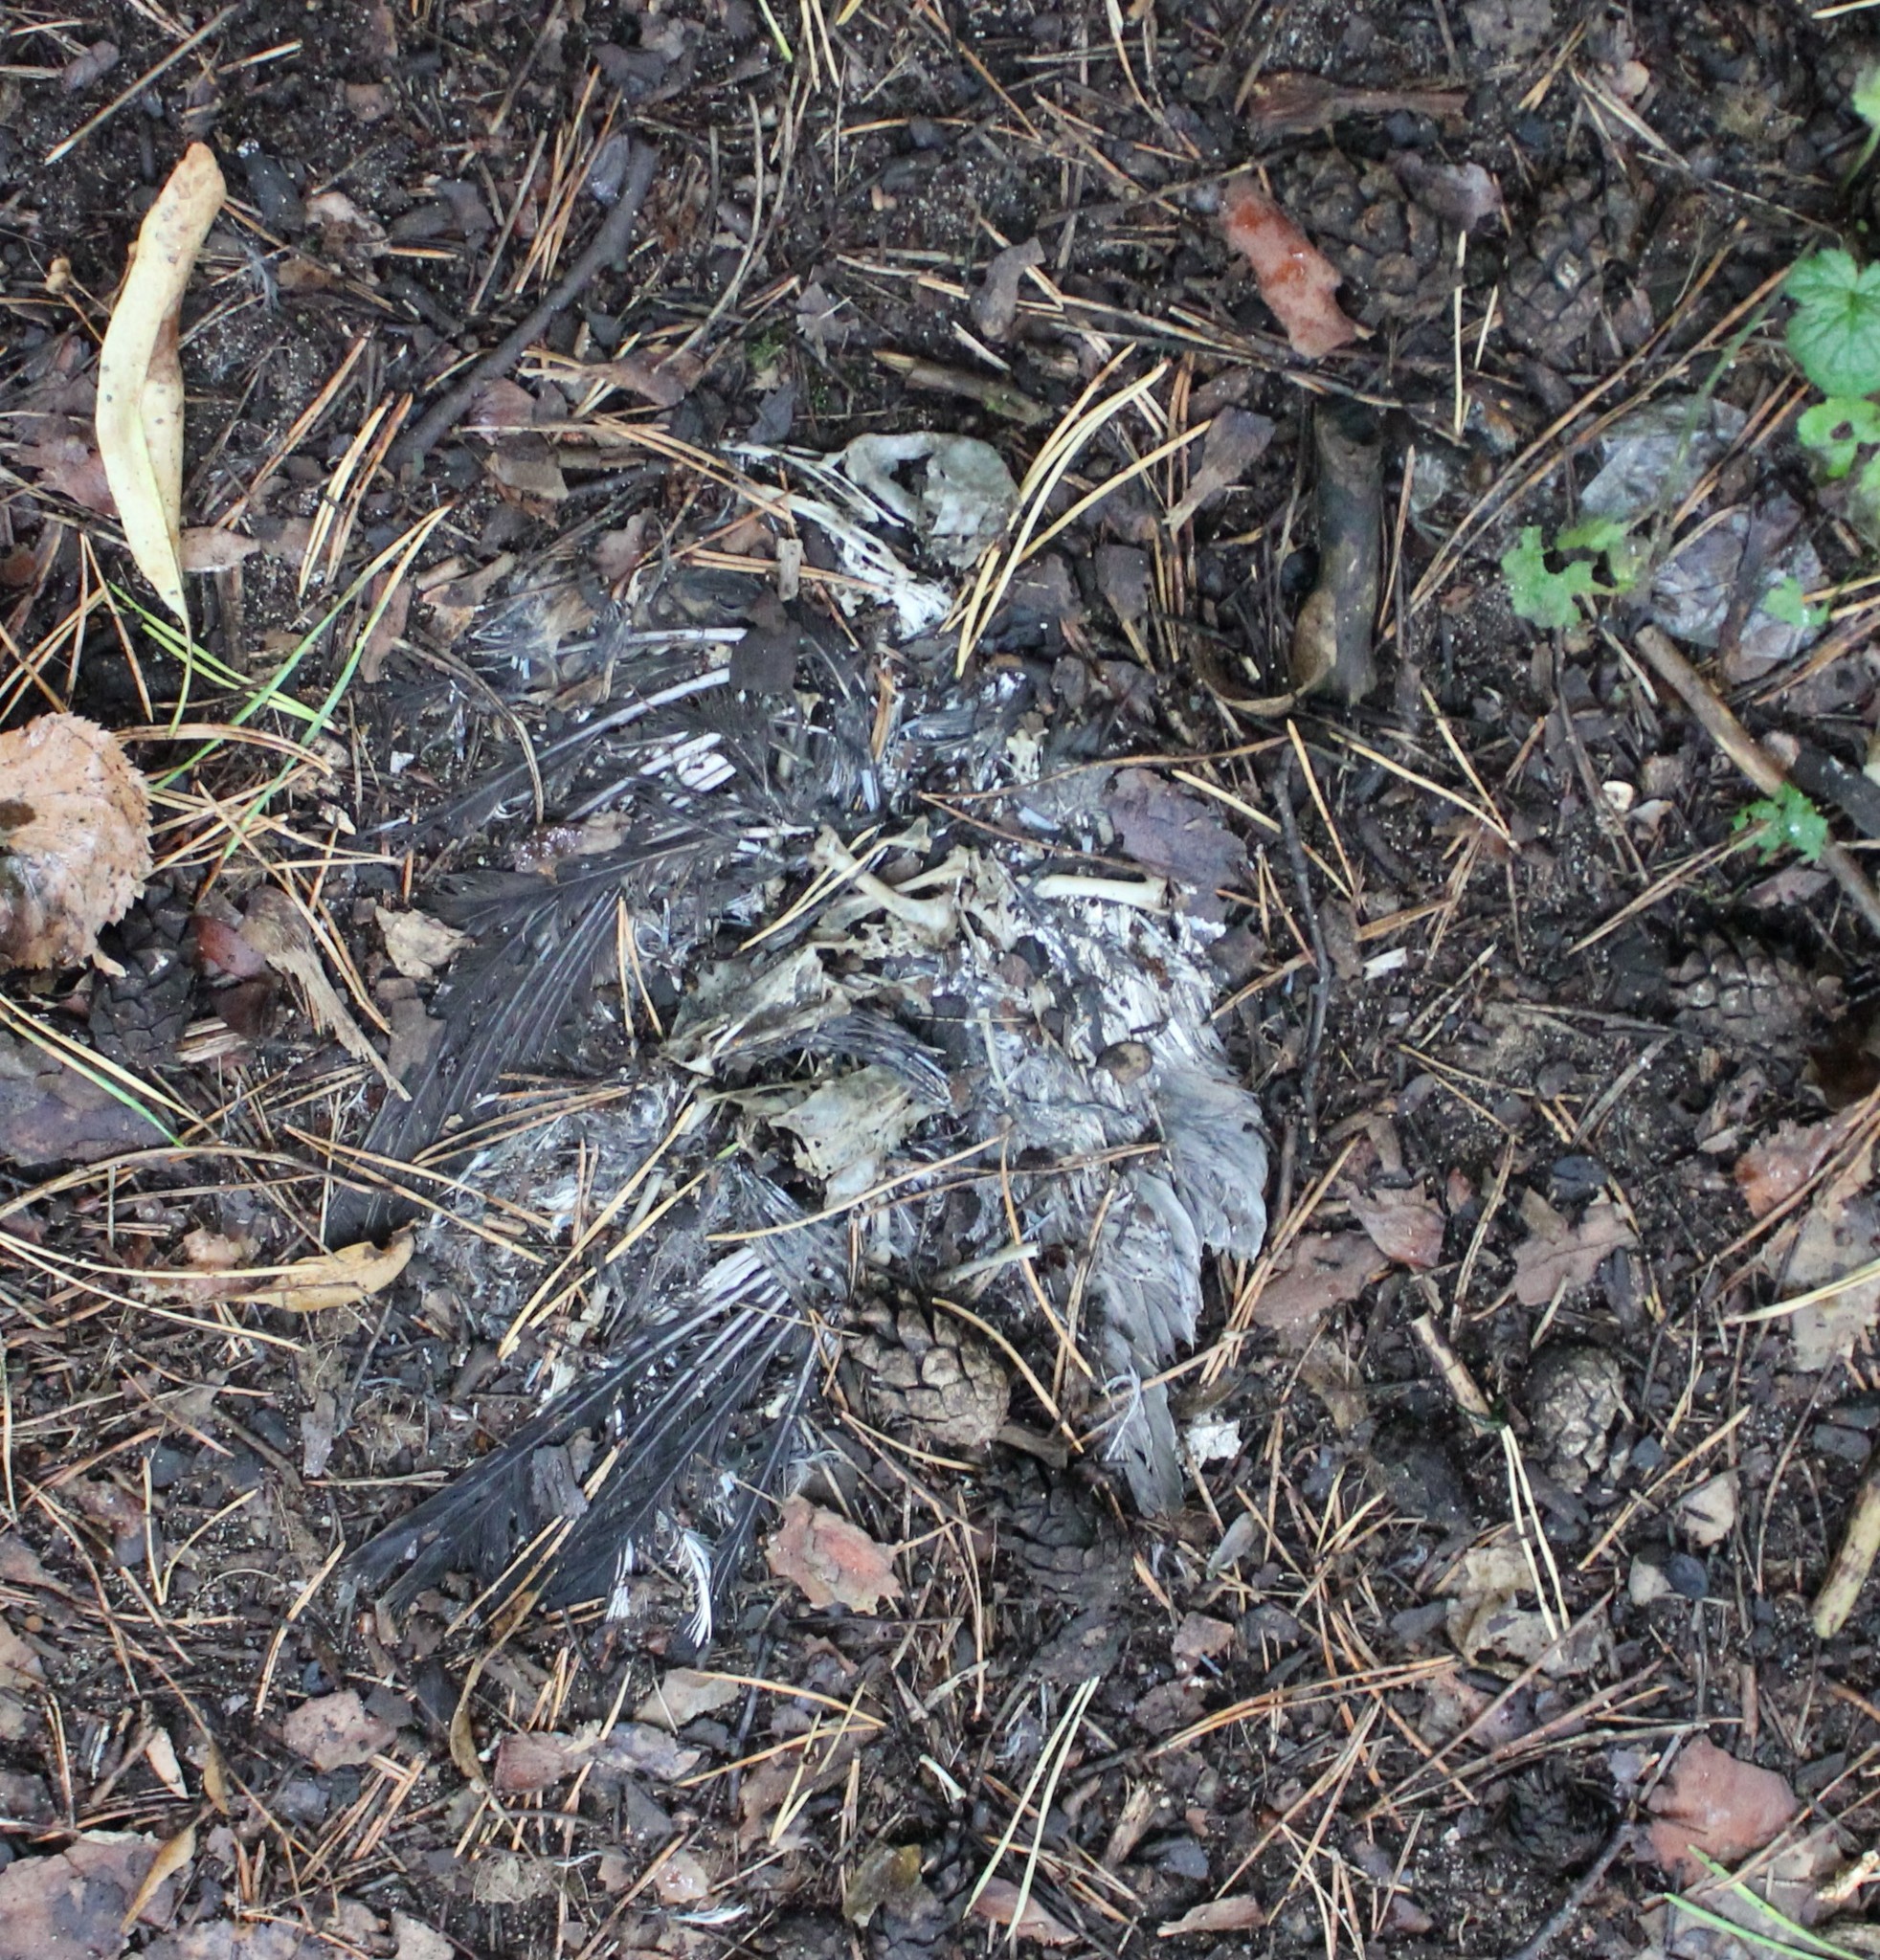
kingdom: Animalia
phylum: Chordata
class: Aves
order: Passeriformes
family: Turdidae
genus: Turdus
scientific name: Turdus merula
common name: Common blackbird
